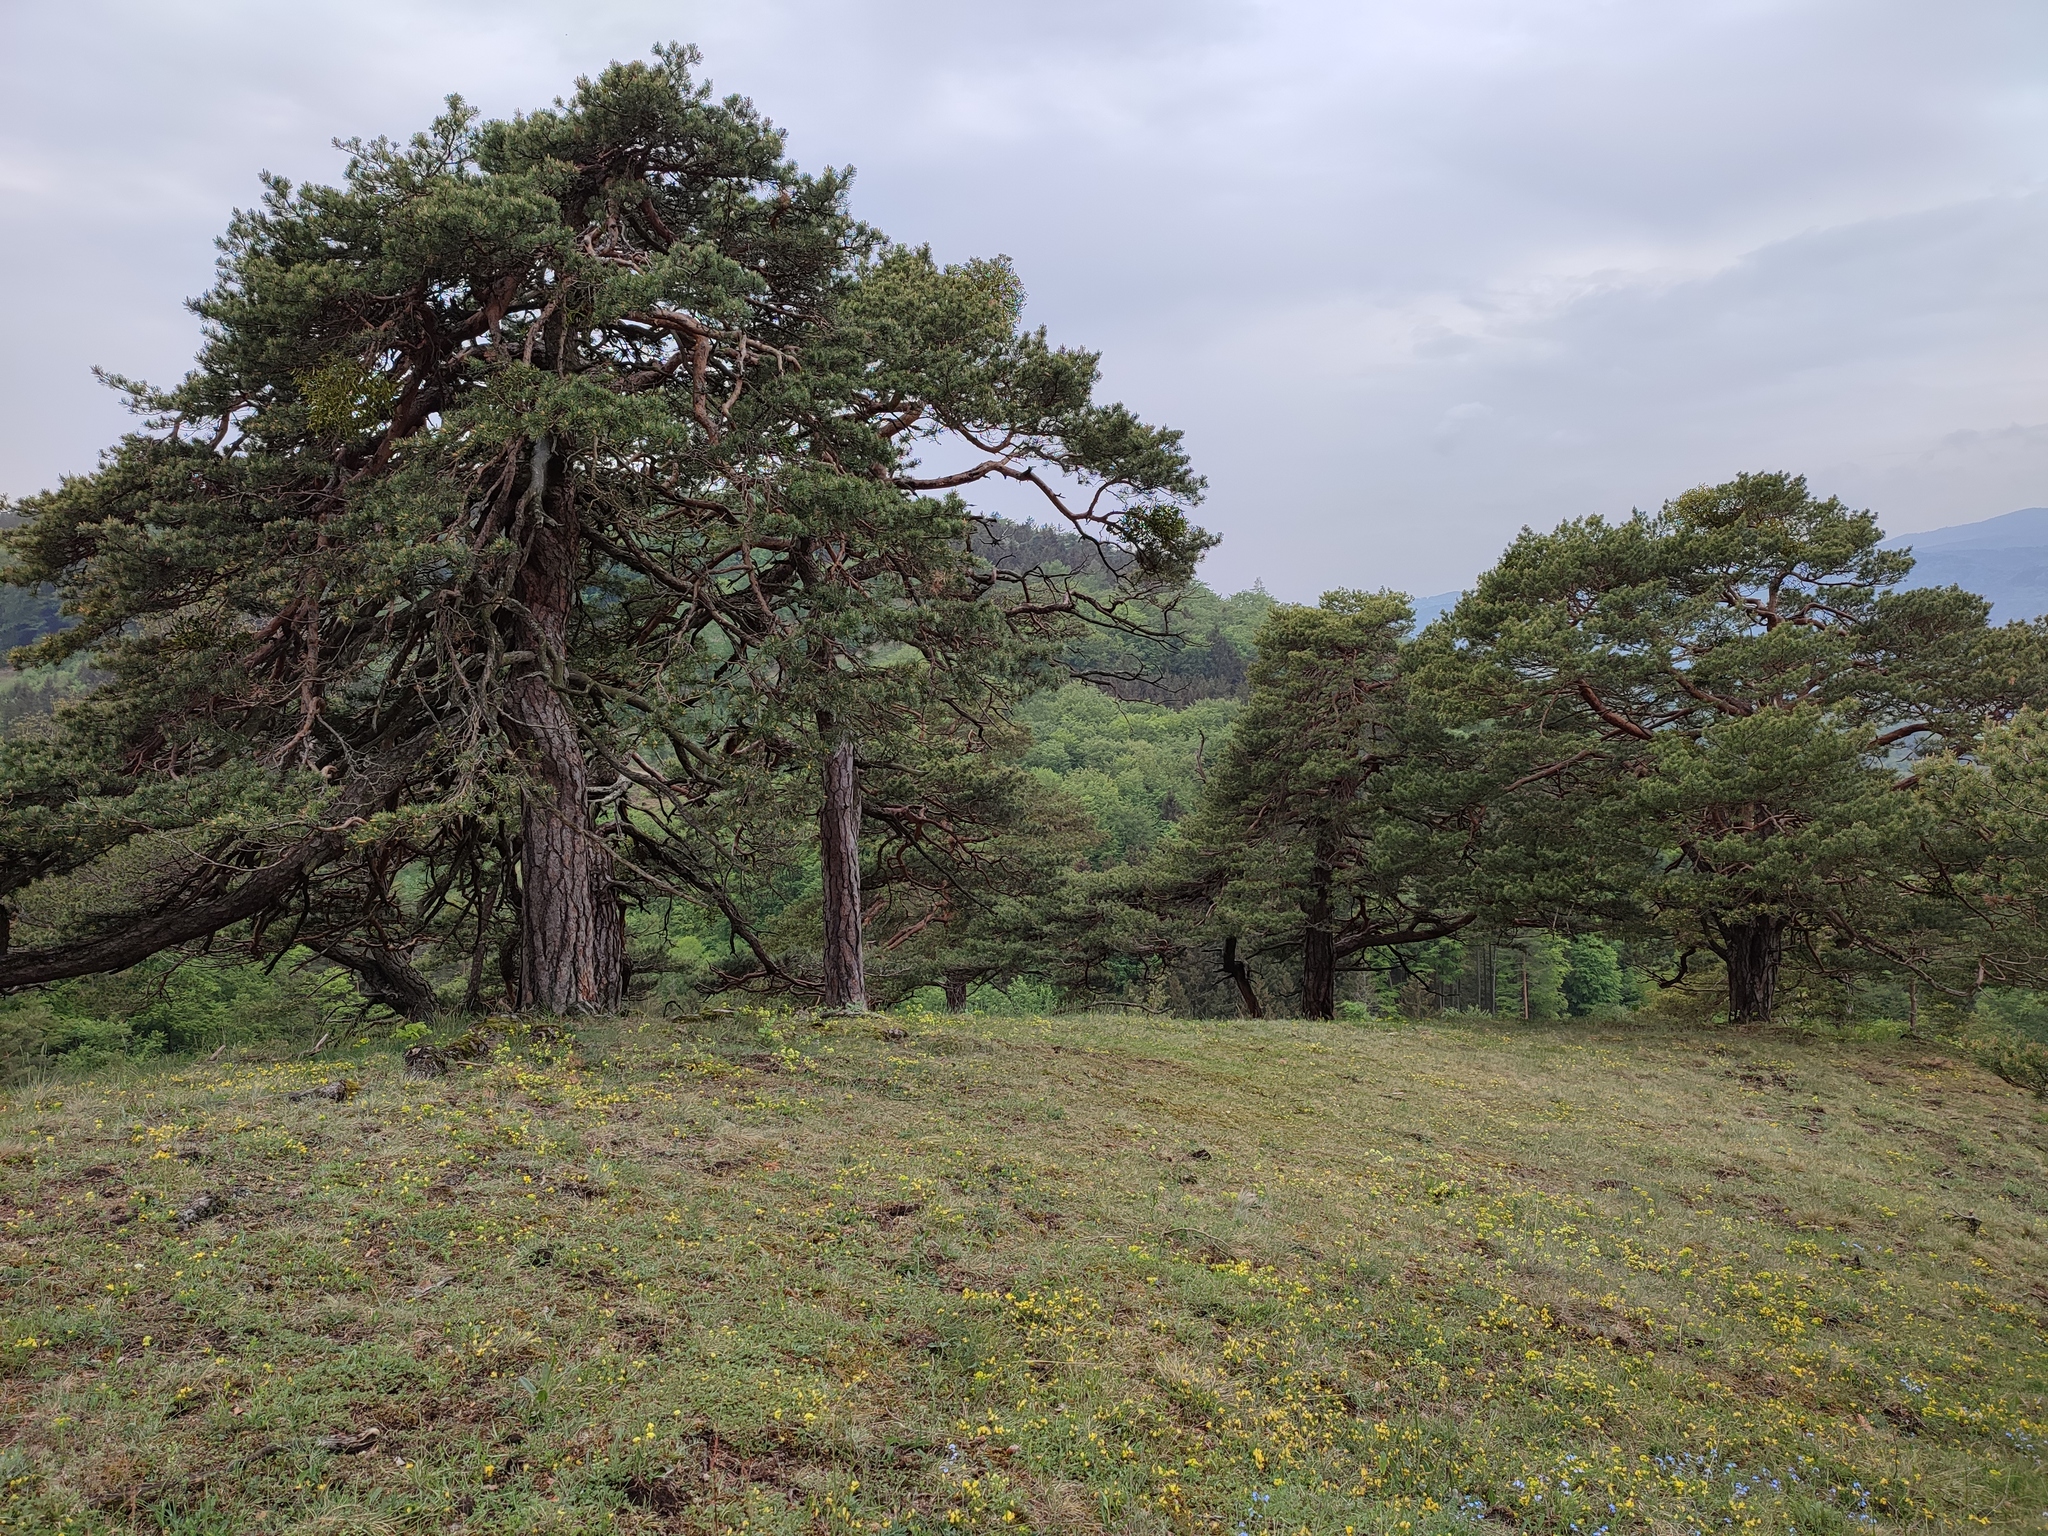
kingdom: Plantae
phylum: Tracheophyta
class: Pinopsida
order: Pinales
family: Pinaceae
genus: Pinus
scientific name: Pinus sylvestris
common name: Scots pine
